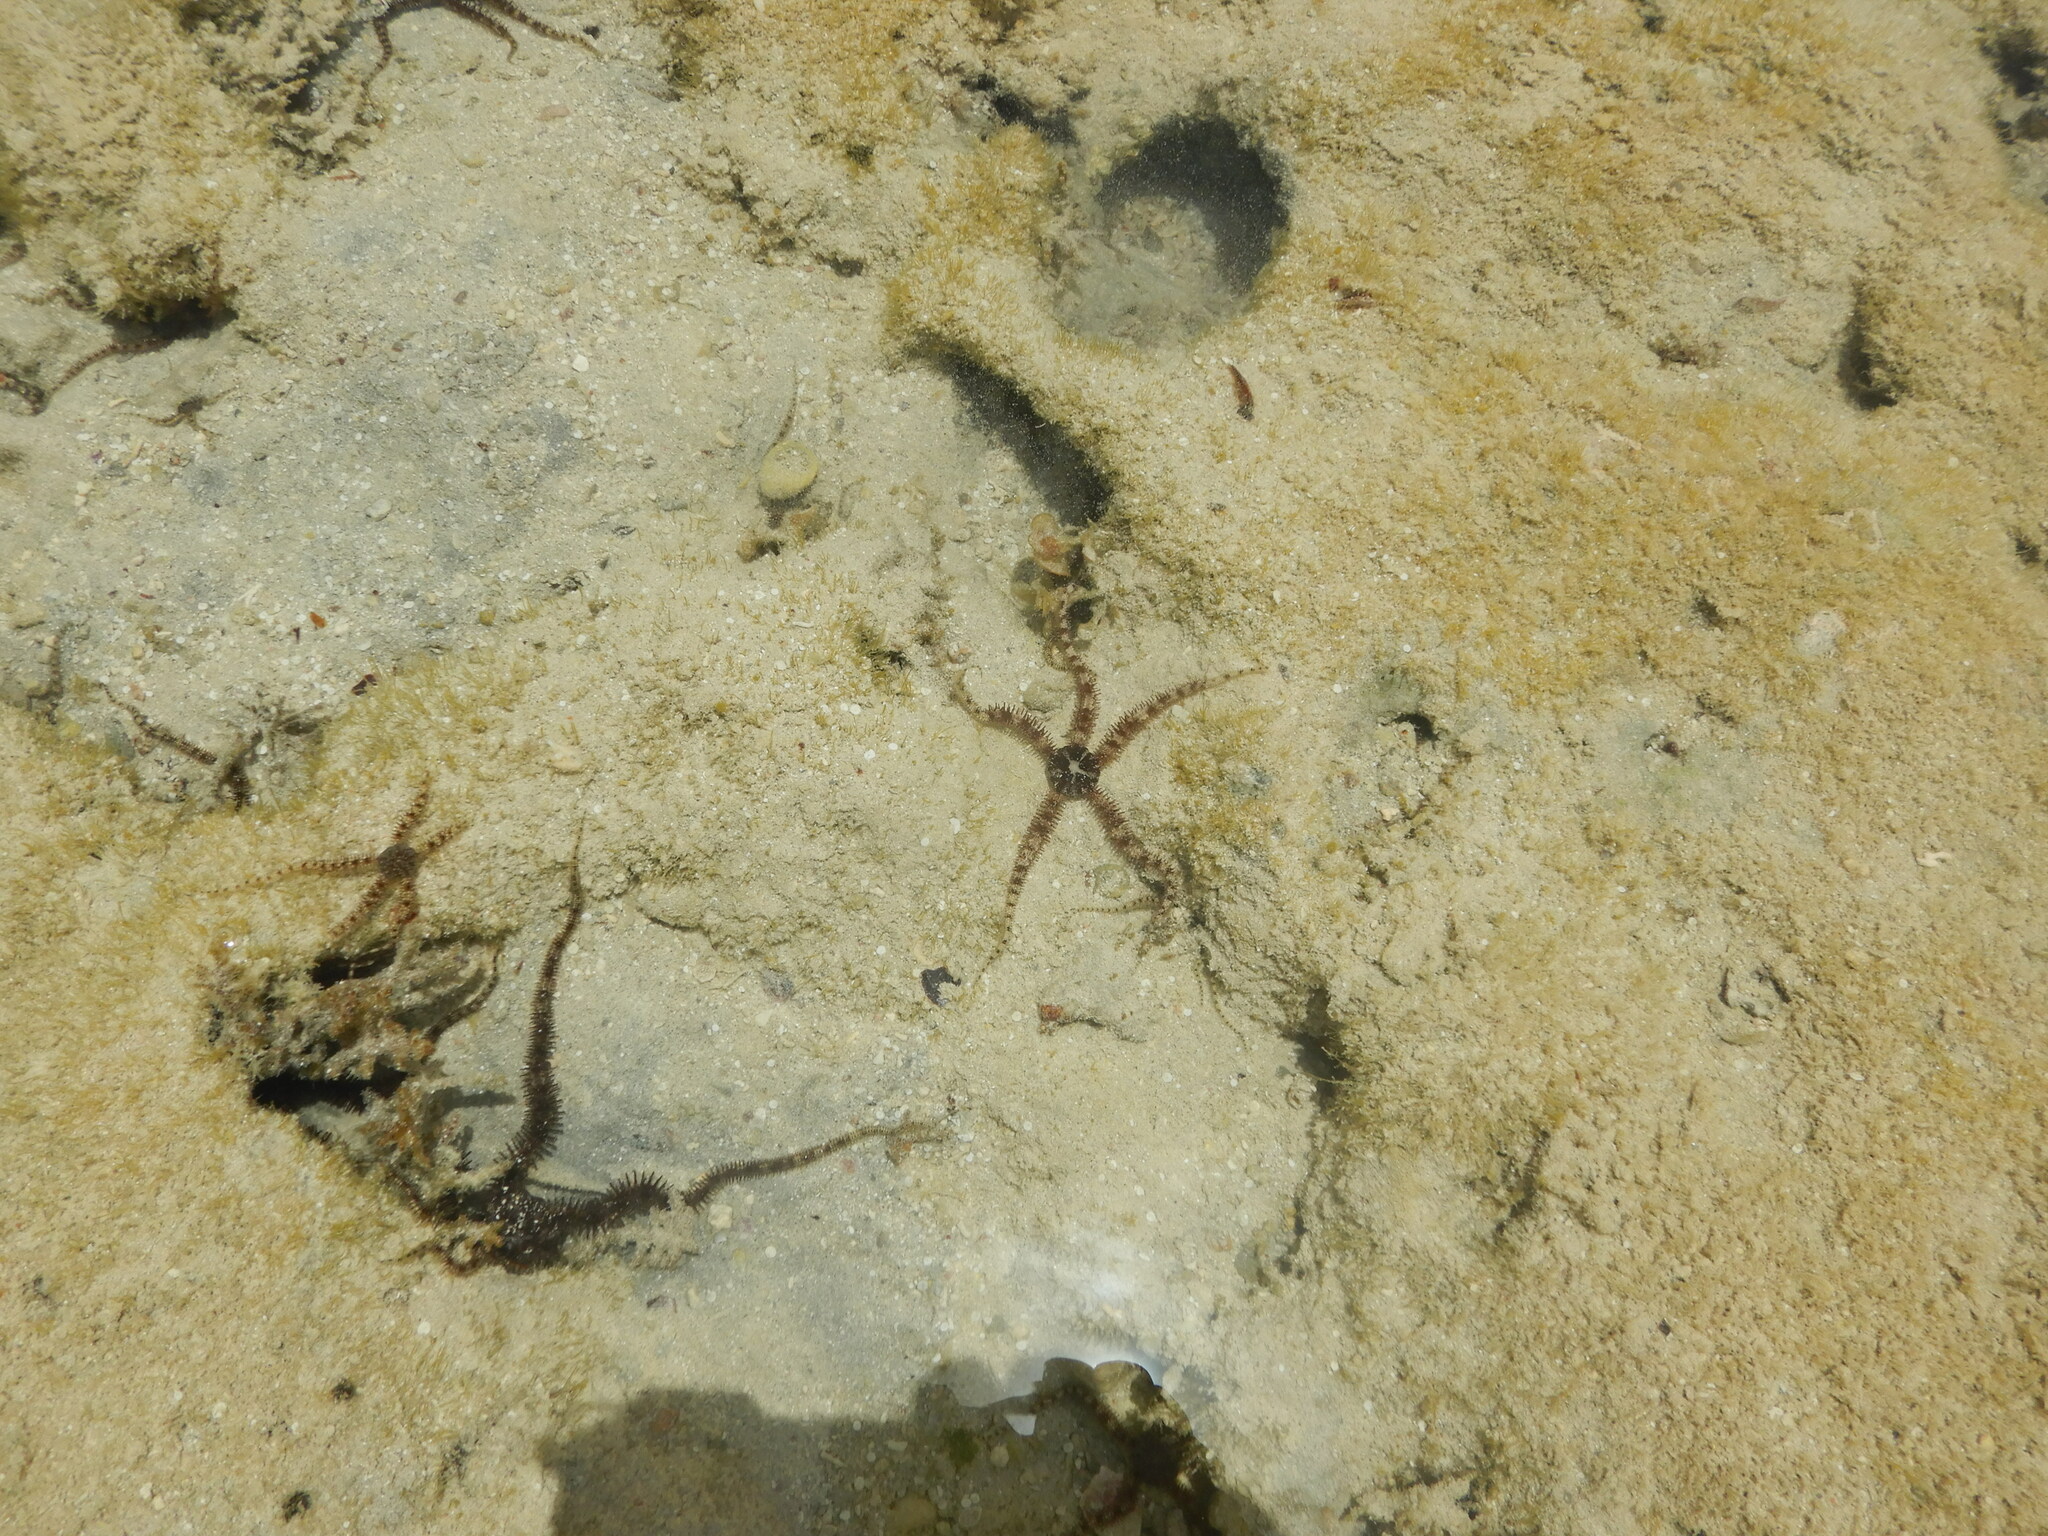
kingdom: Animalia
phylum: Echinodermata
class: Ophiuroidea
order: Ophiacanthida
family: Ophiocomidae
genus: Ophiocoma
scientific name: Ophiocoma scolopendrina
